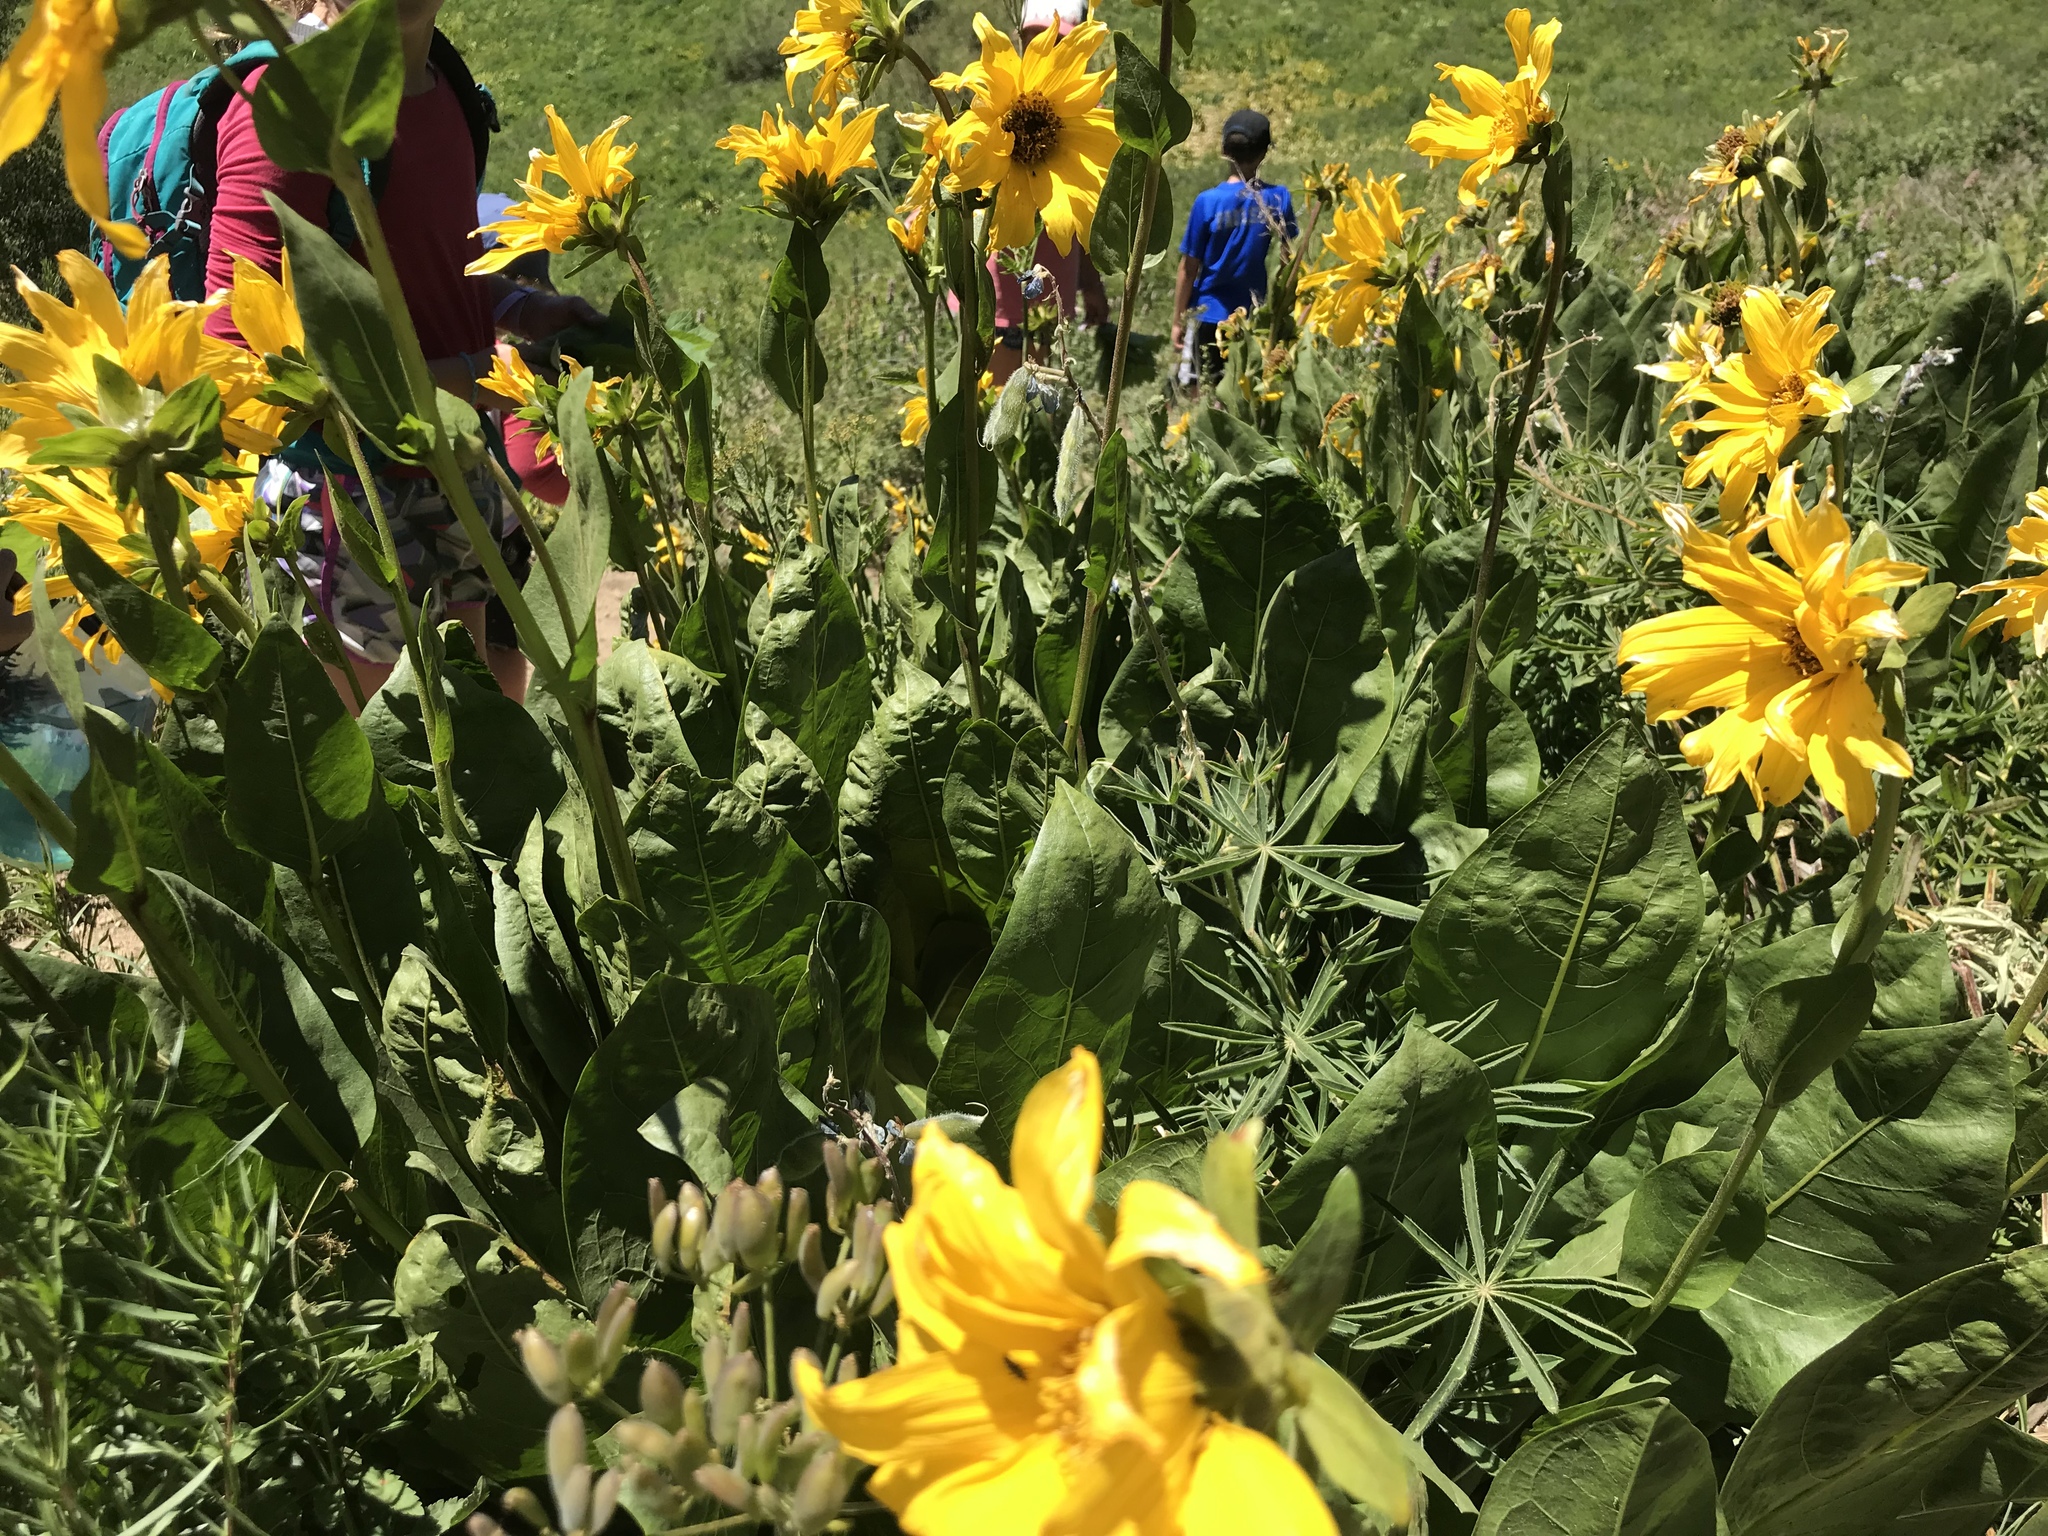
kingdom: Plantae
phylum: Tracheophyta
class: Magnoliopsida
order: Asterales
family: Asteraceae
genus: Wyethia
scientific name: Wyethia amplexicaulis
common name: Northern mule's-ears
